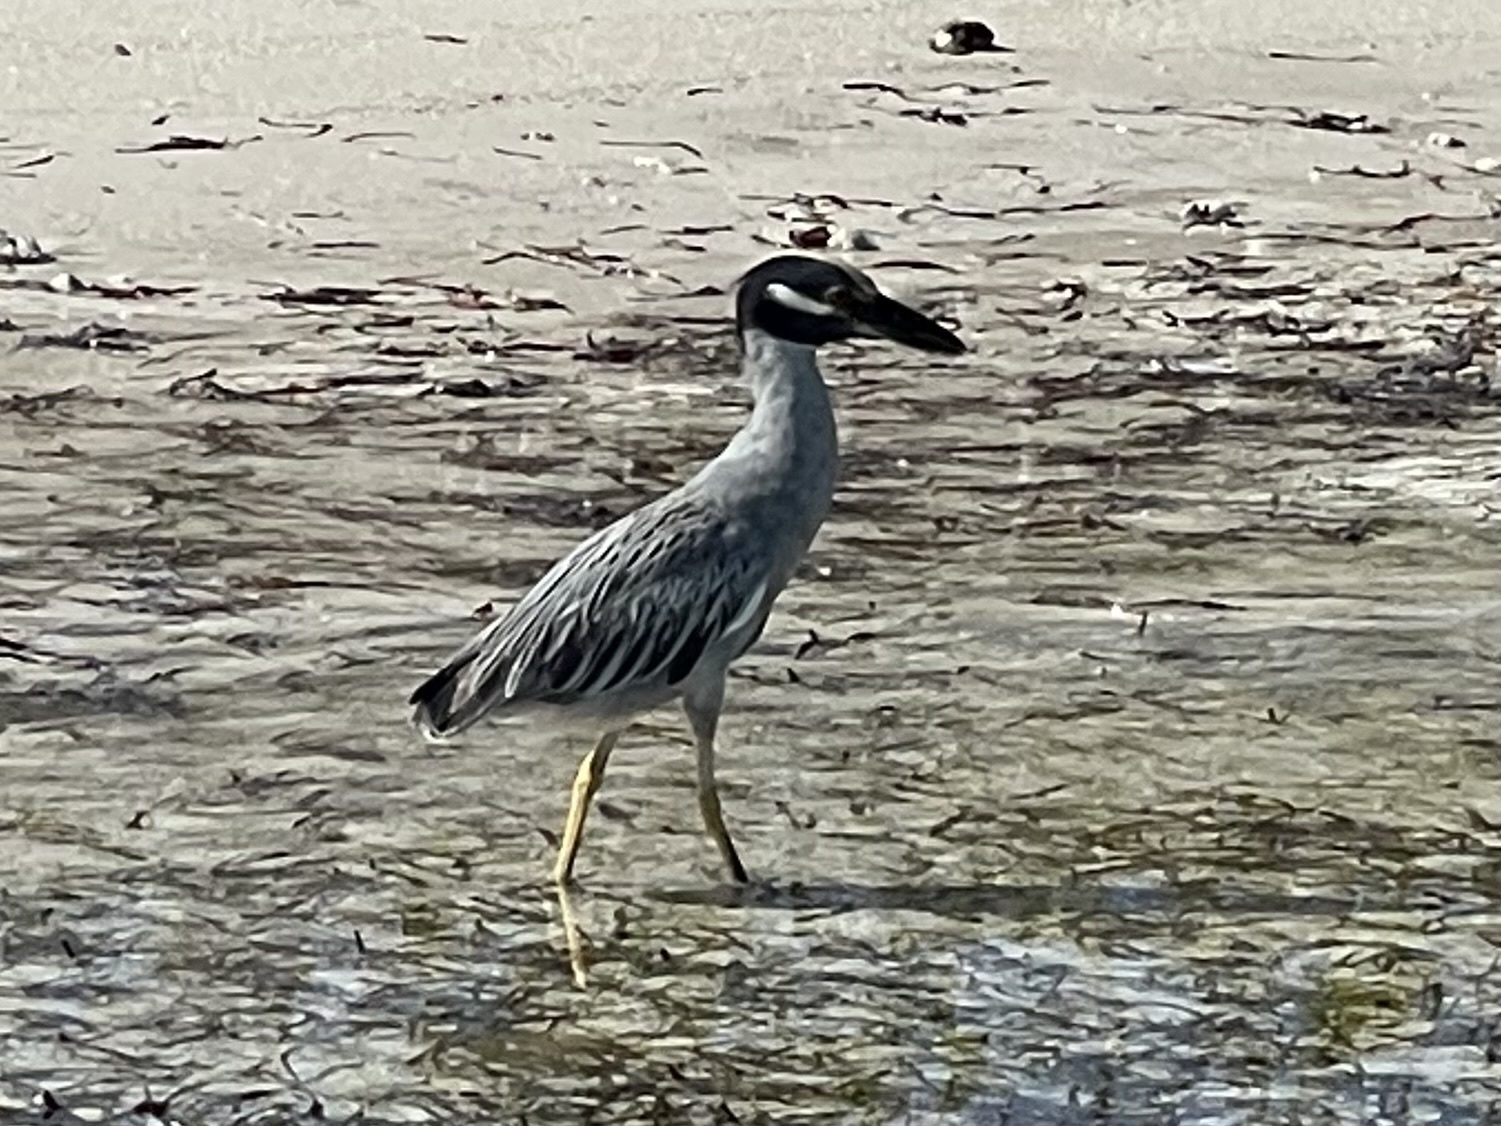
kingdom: Animalia
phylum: Chordata
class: Aves
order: Pelecaniformes
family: Ardeidae
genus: Nyctanassa
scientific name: Nyctanassa violacea
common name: Yellow-crowned night heron
